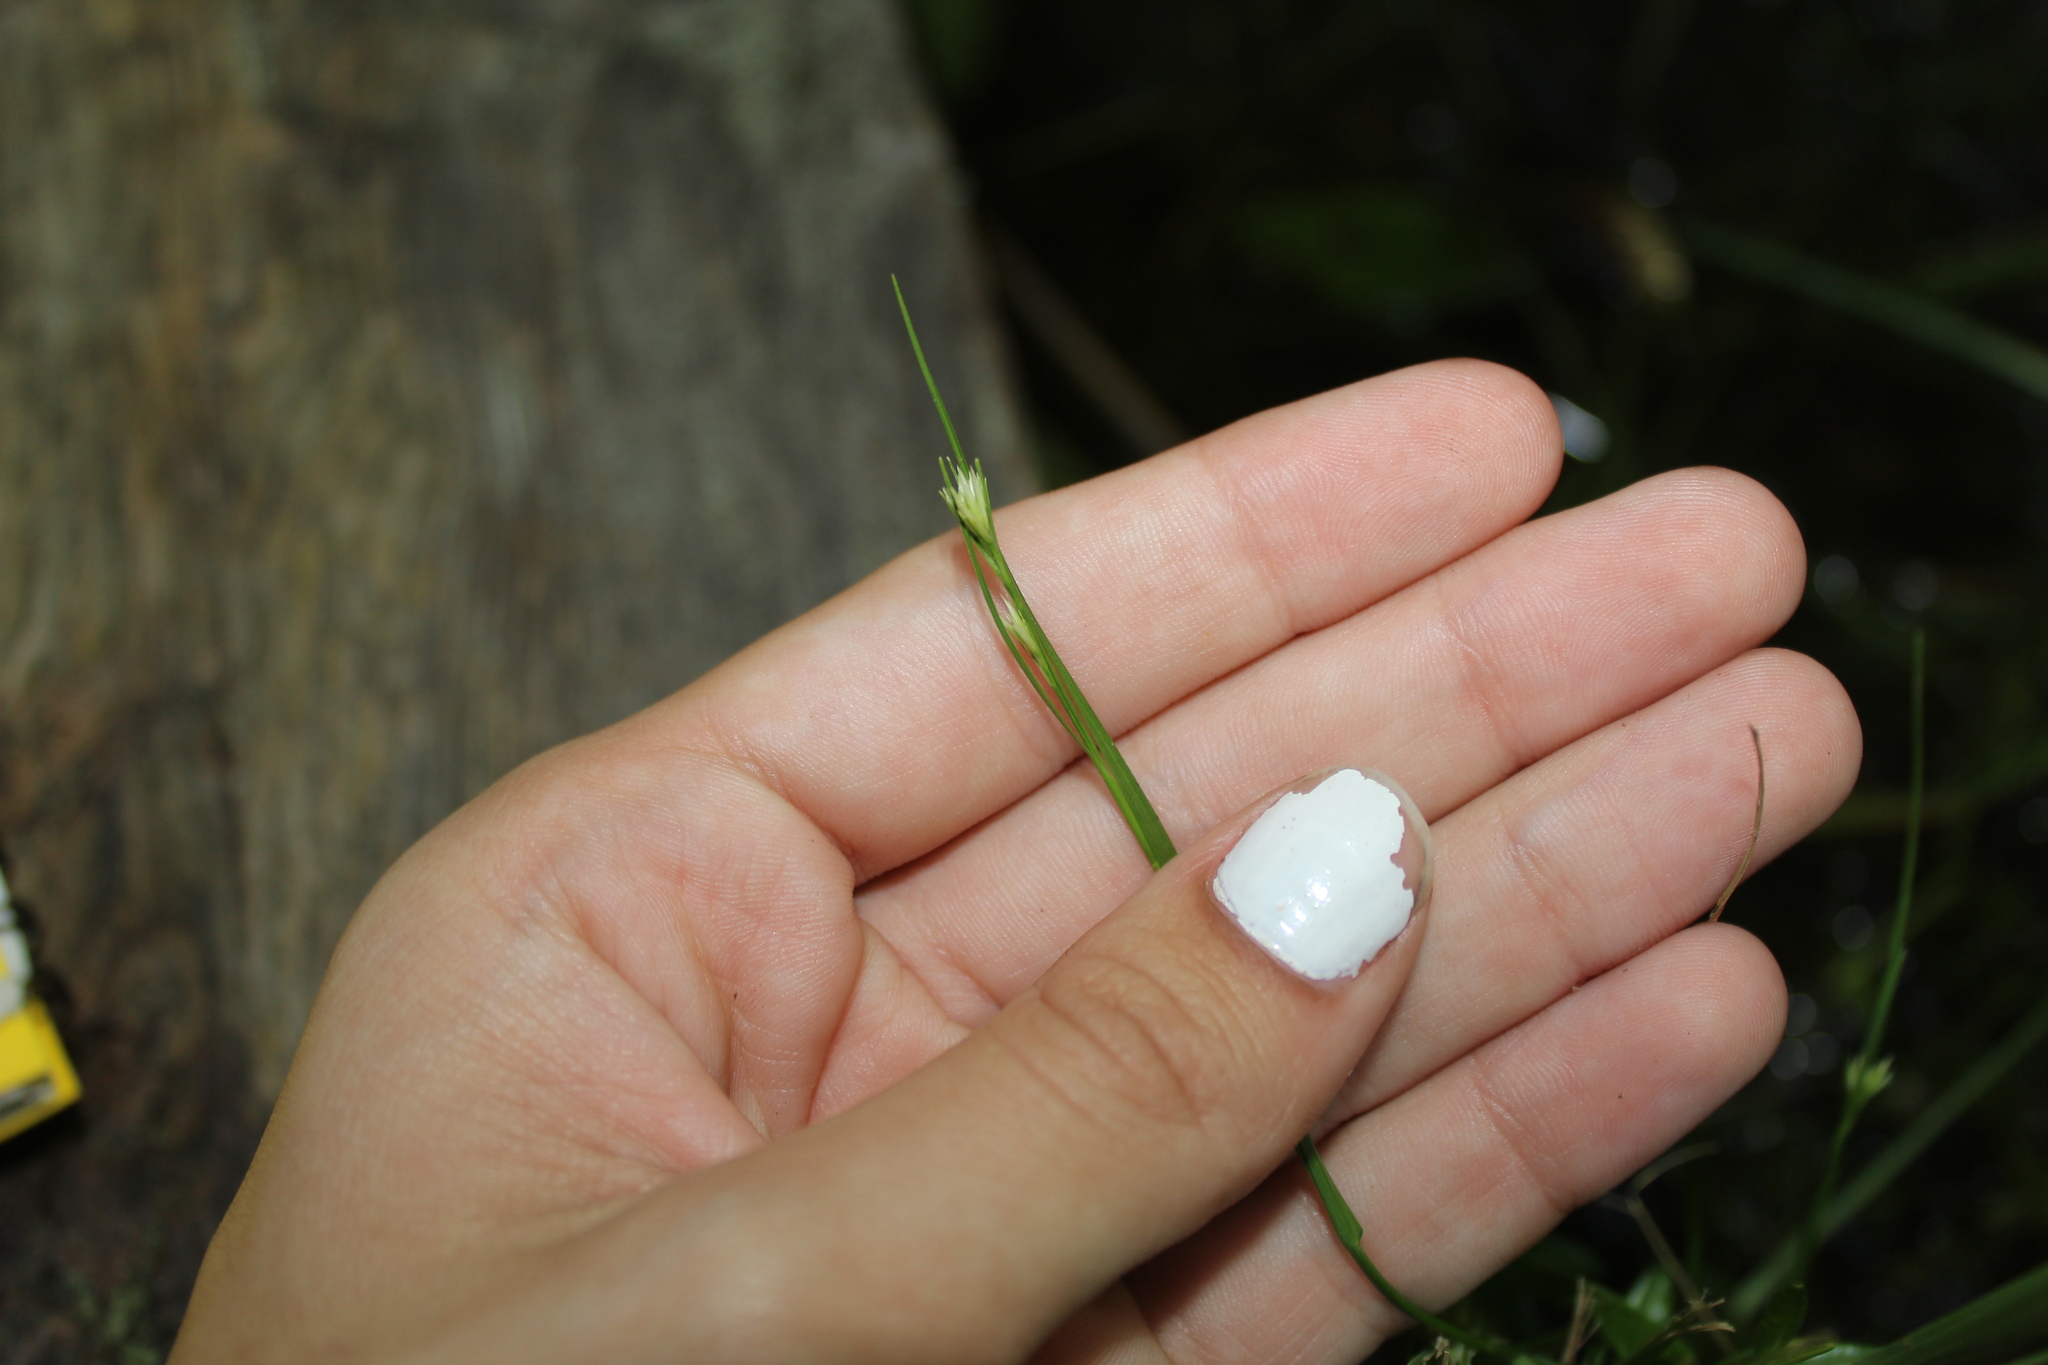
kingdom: Plantae
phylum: Tracheophyta
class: Liliopsida
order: Poales
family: Cyperaceae
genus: Rhynchospora
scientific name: Rhynchospora alba
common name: White beak-sedge
